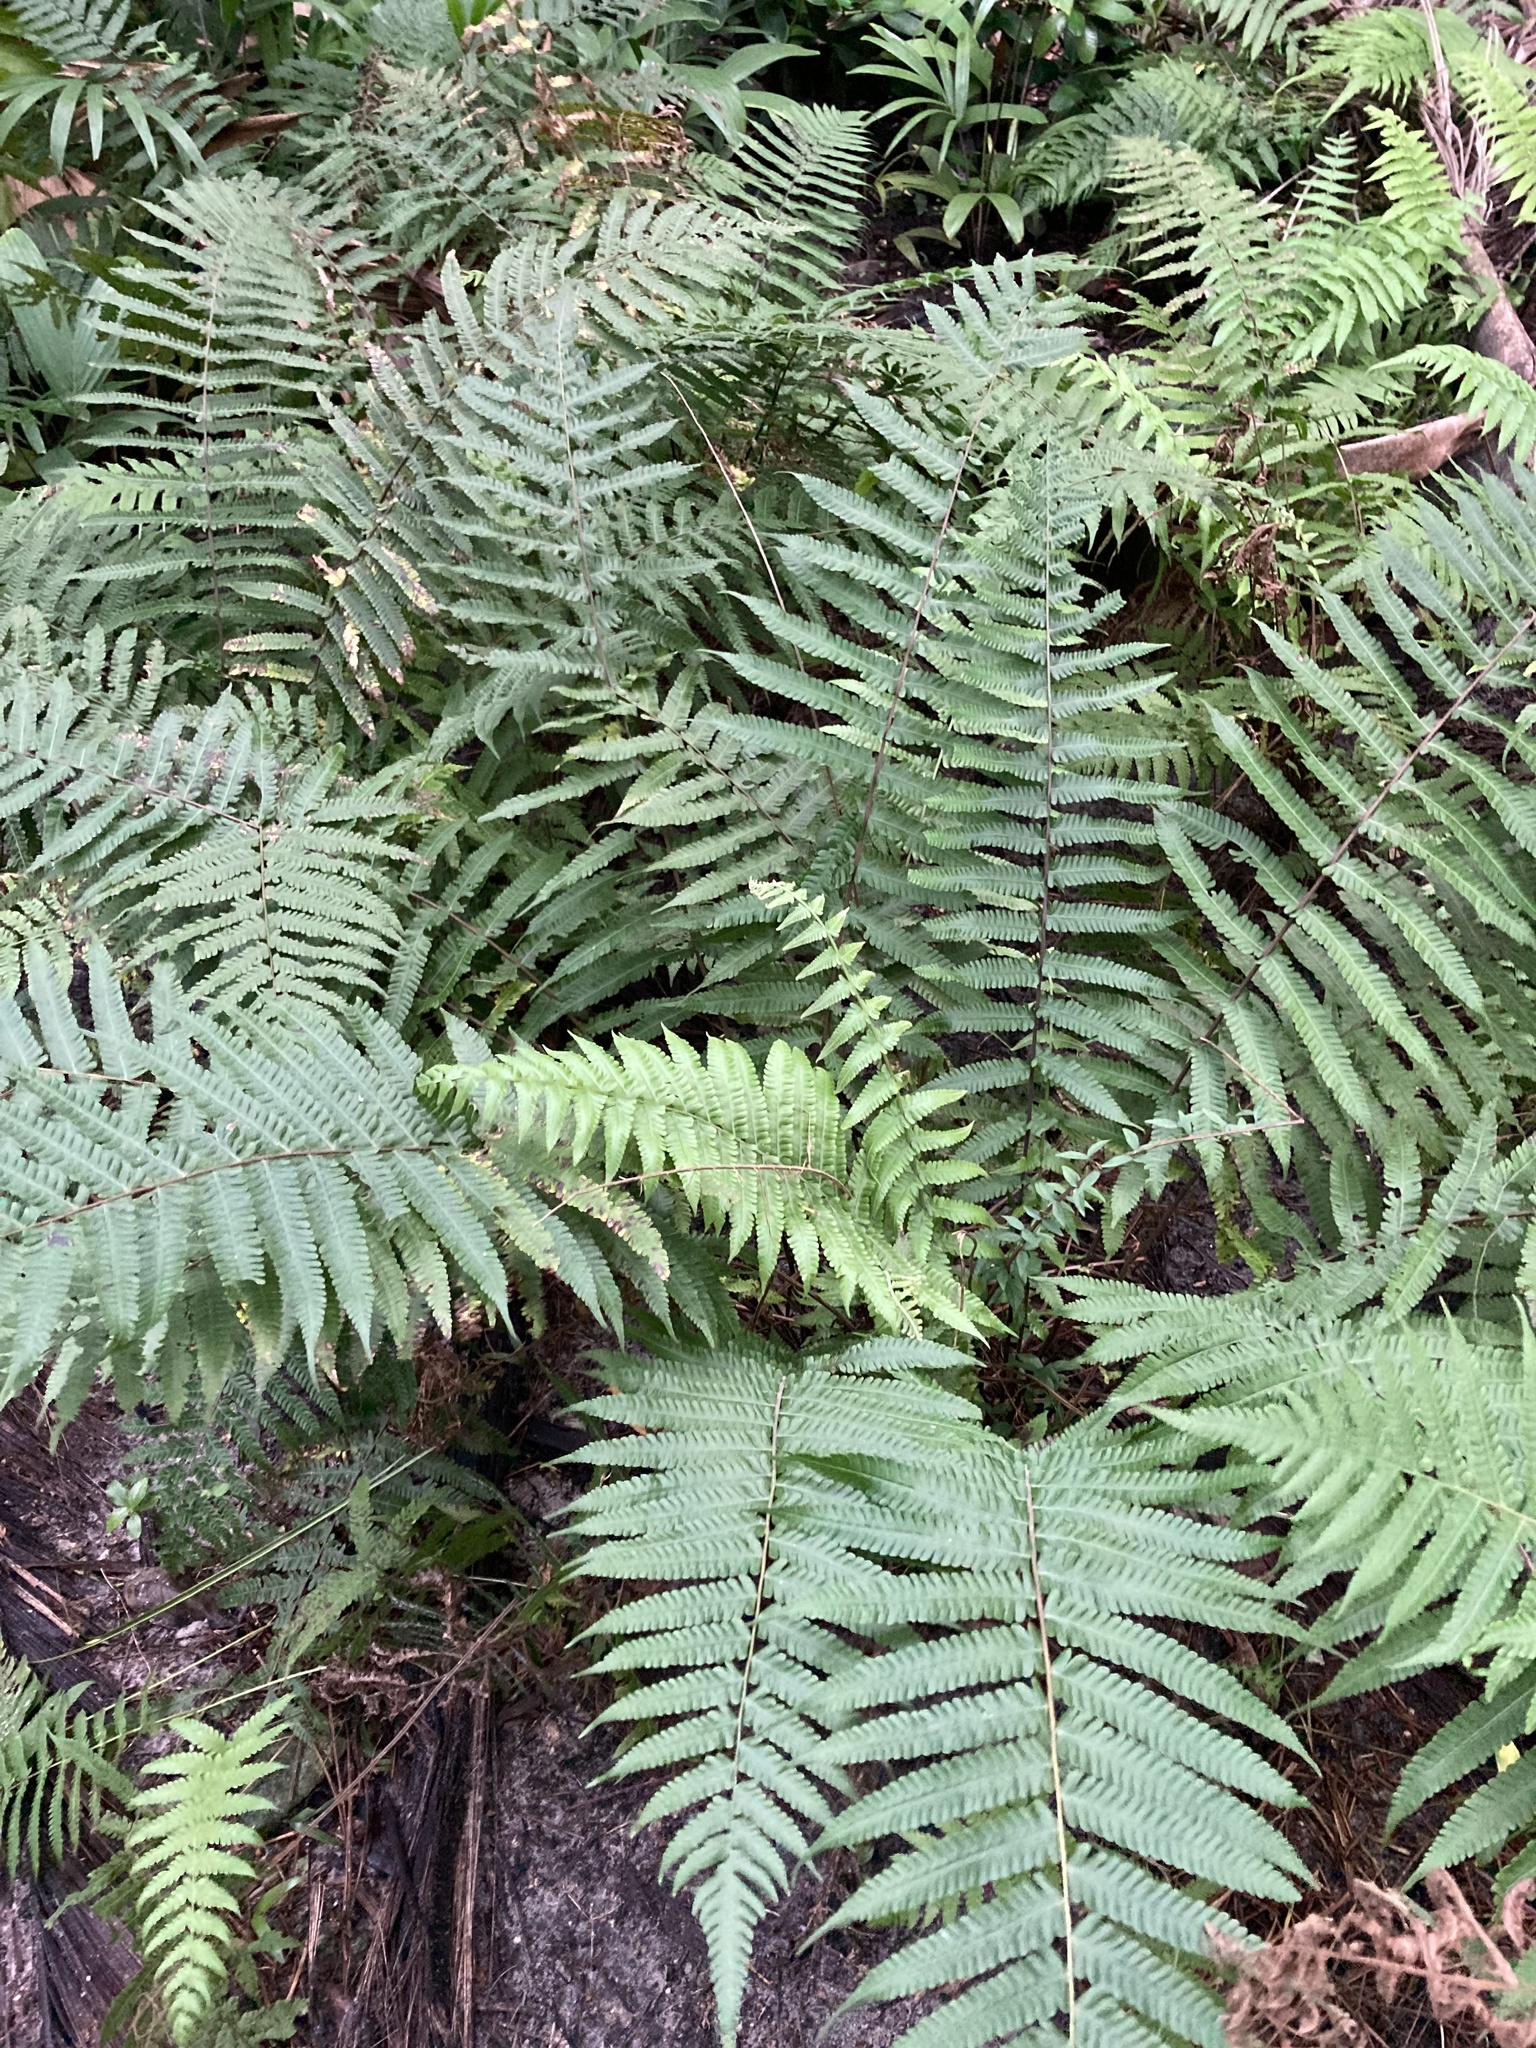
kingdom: Plantae
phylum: Tracheophyta
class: Polypodiopsida
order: Polypodiales
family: Thelypteridaceae
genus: Christella
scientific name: Christella dentata
